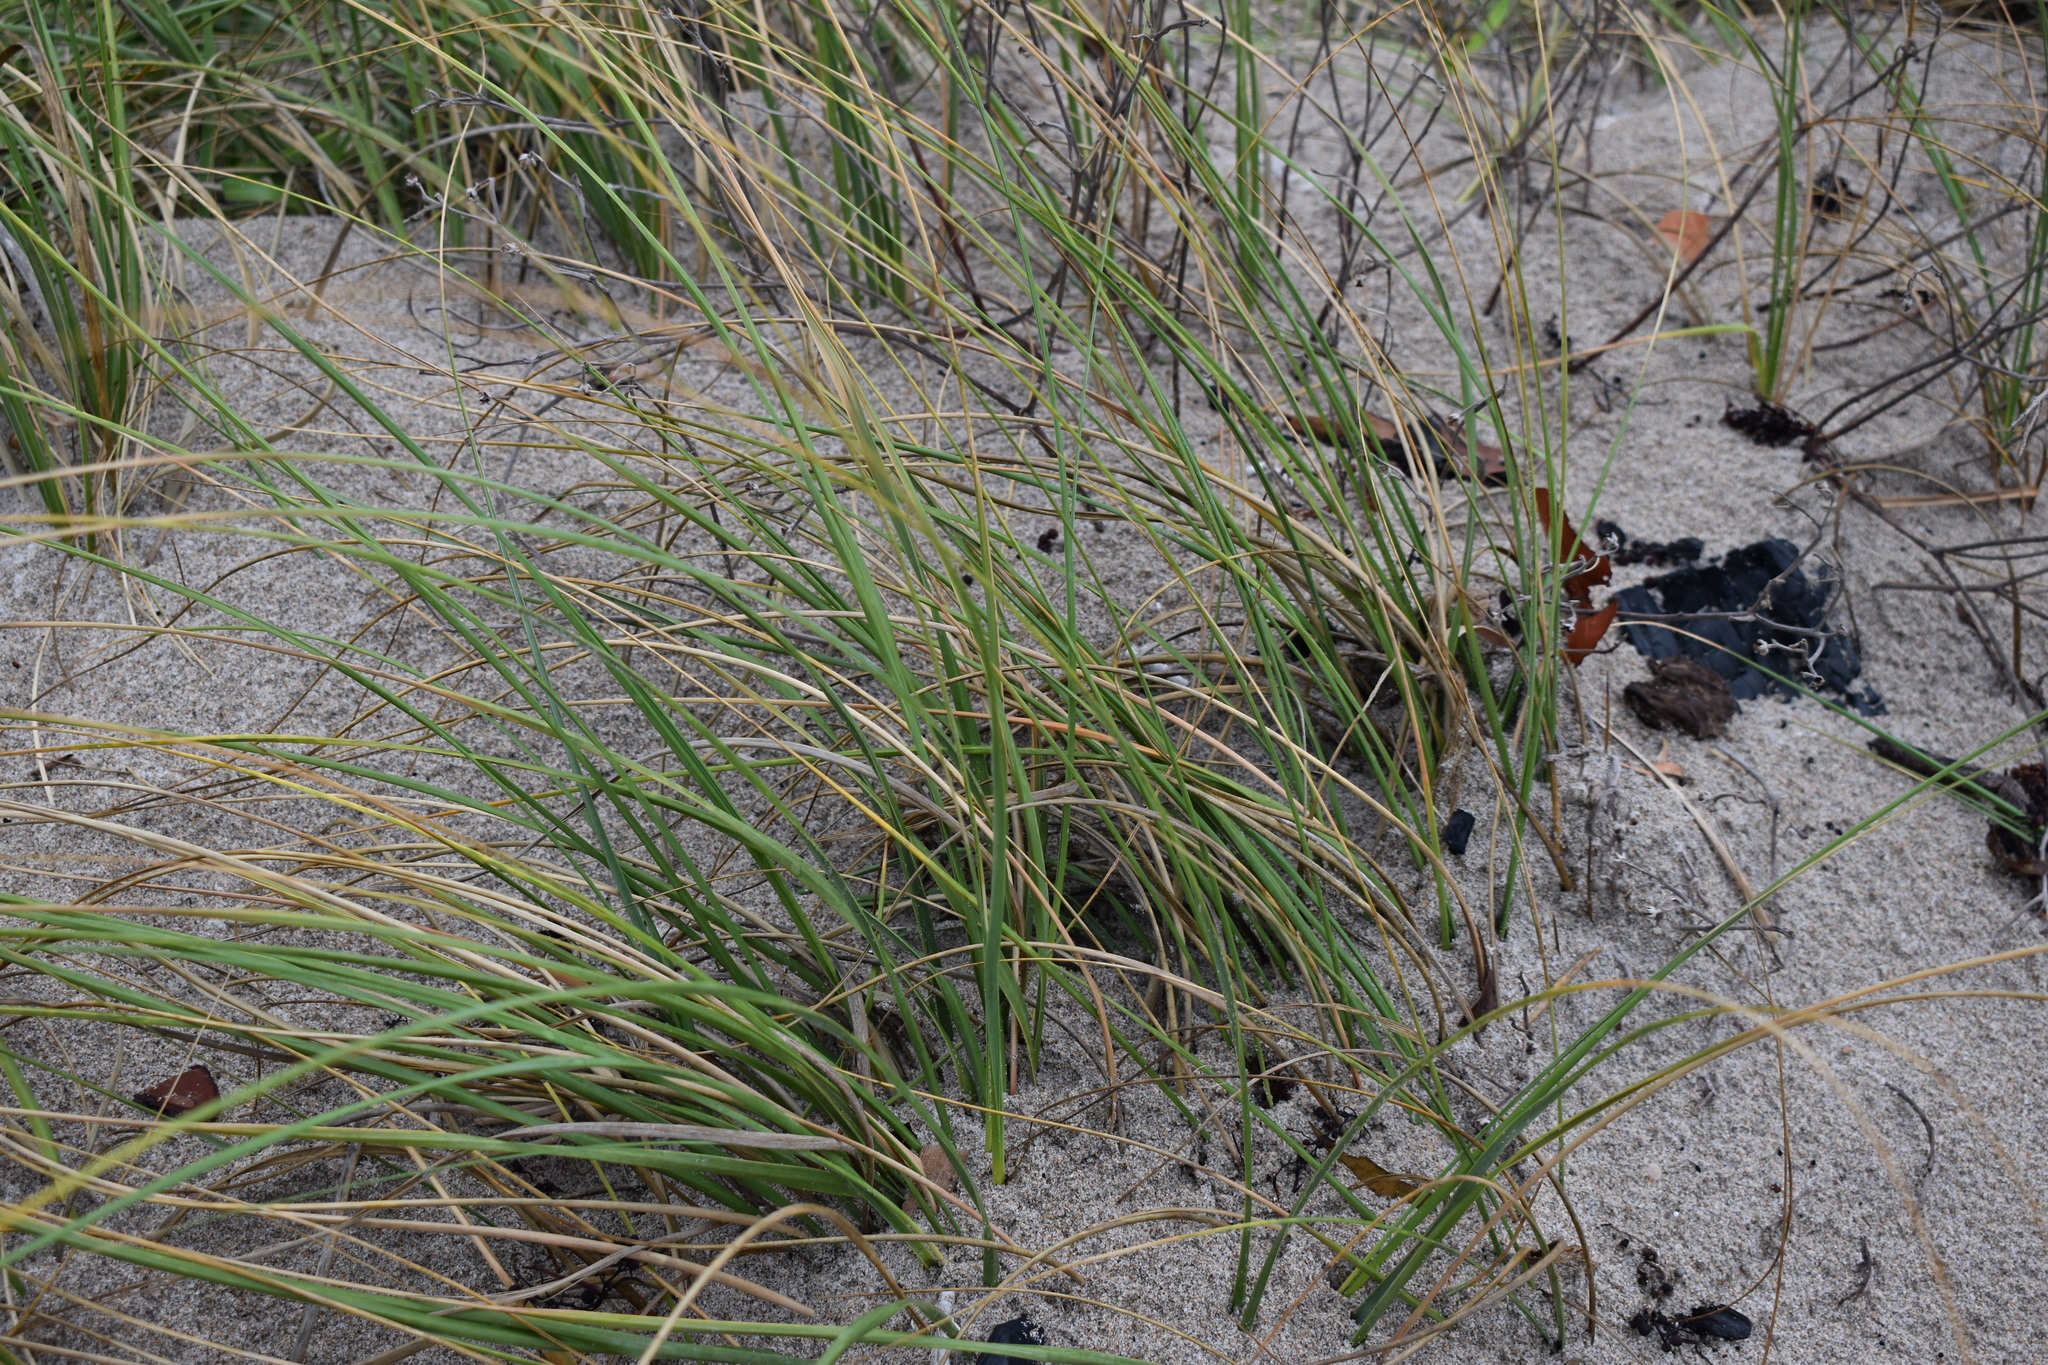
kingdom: Plantae
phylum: Tracheophyta
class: Liliopsida
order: Poales
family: Poaceae
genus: Uniola
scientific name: Uniola paniculata
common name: Seaside-oats
